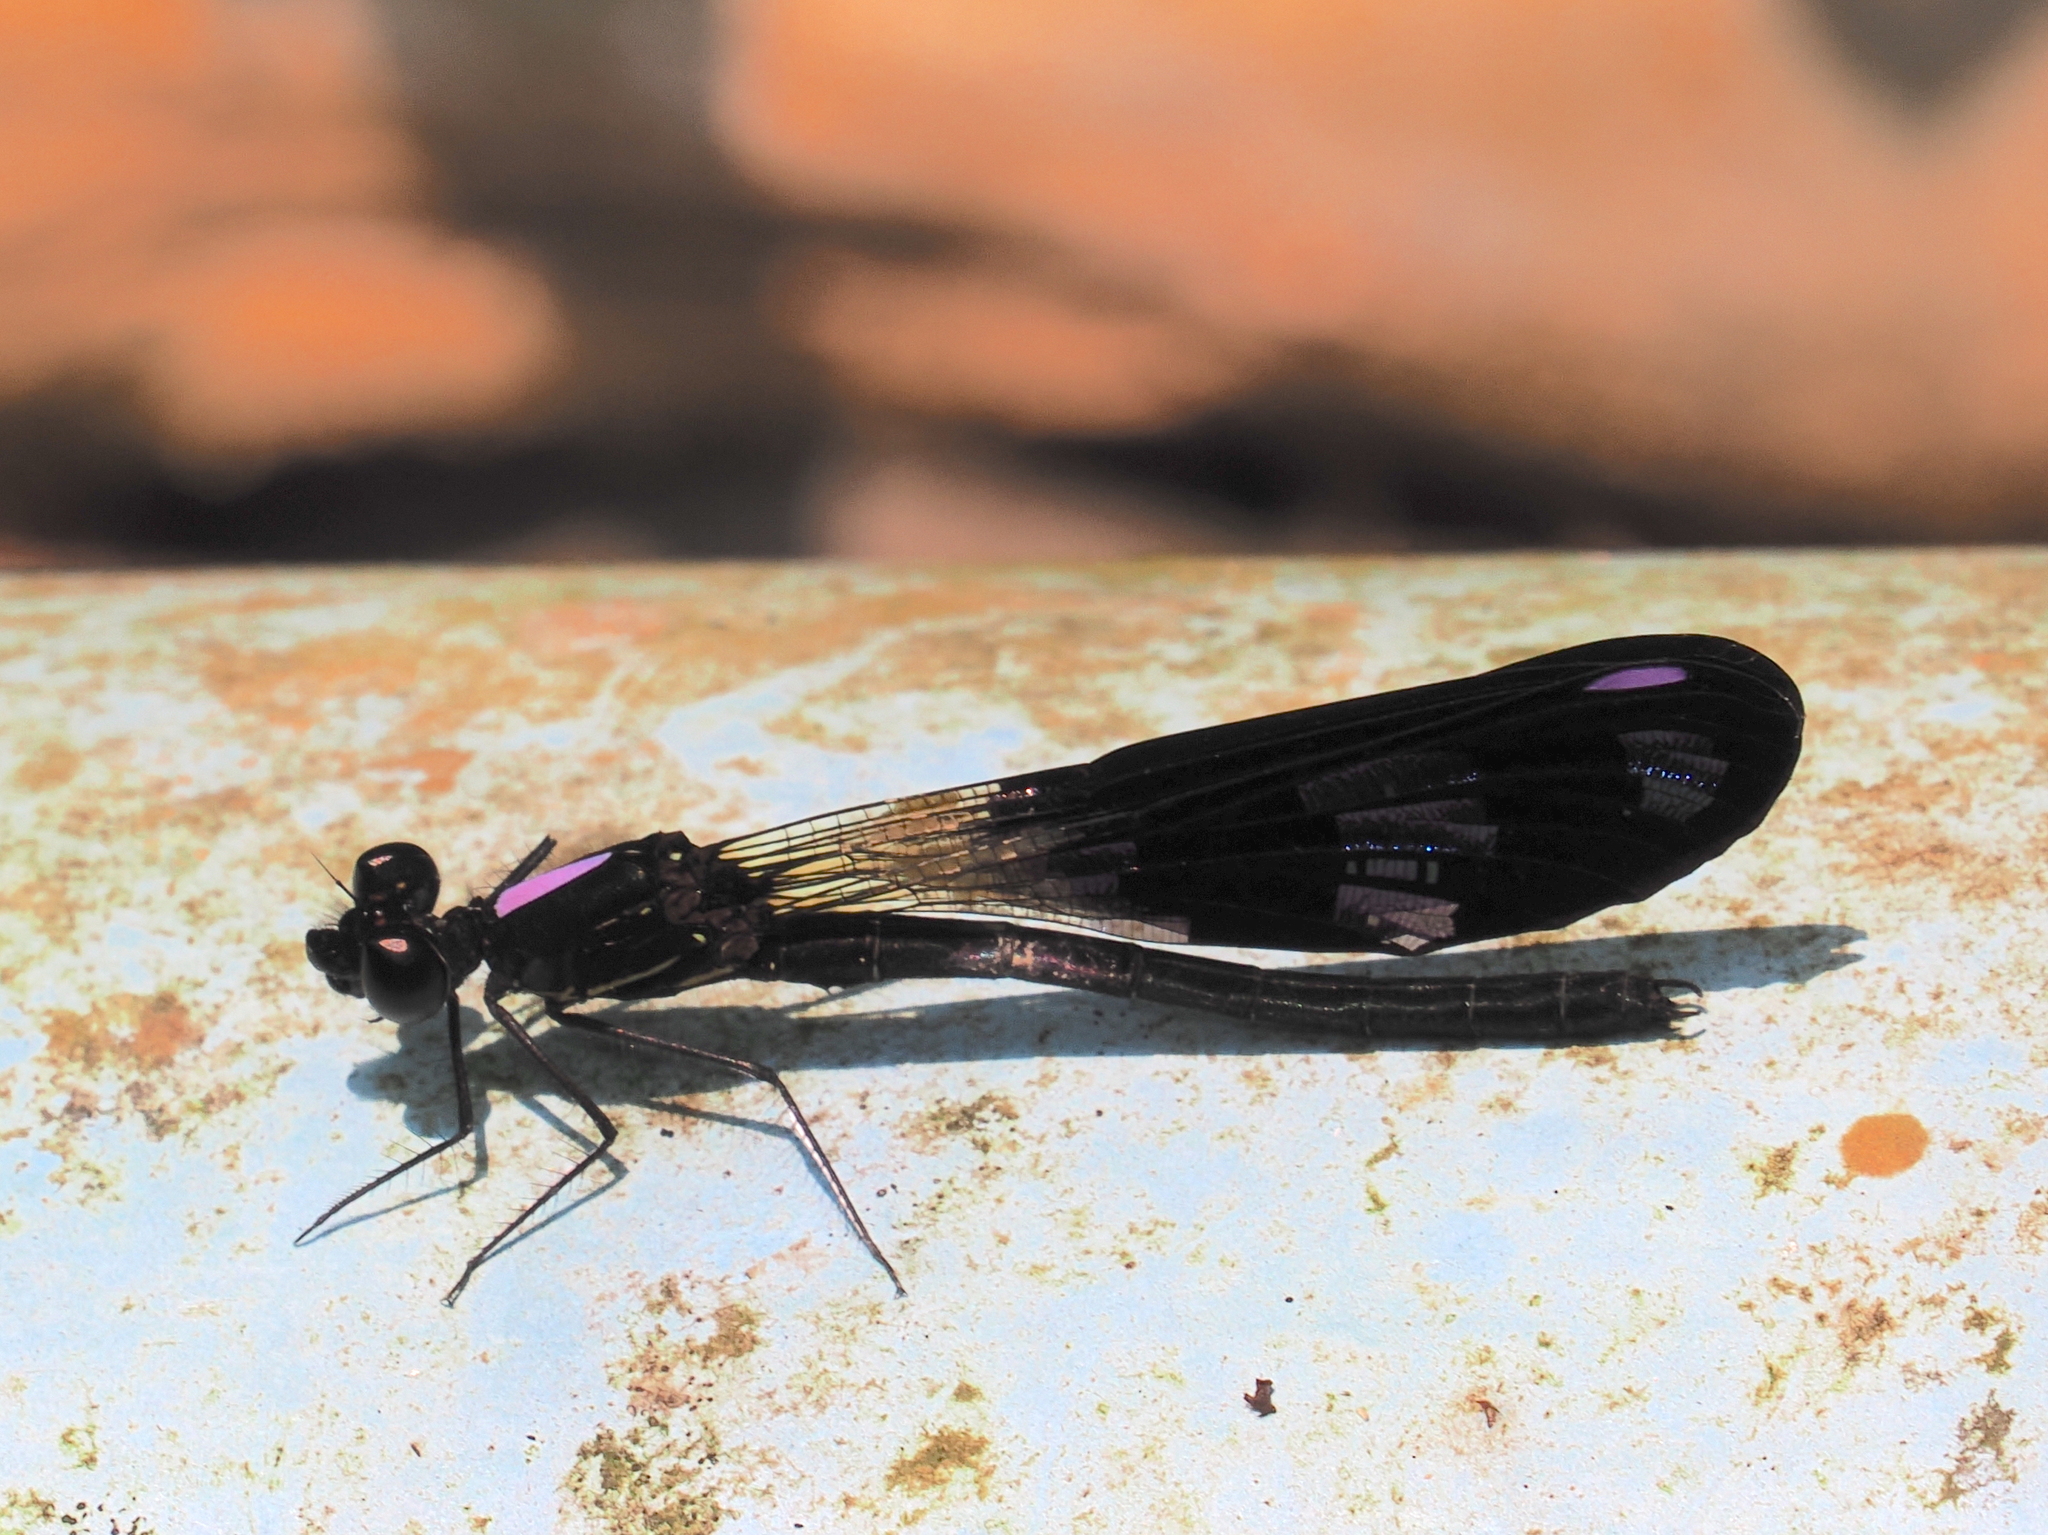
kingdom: Animalia
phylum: Arthropoda
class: Insecta
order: Odonata
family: Chlorocyphidae
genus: Aristocypha
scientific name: Aristocypha fenestrella
